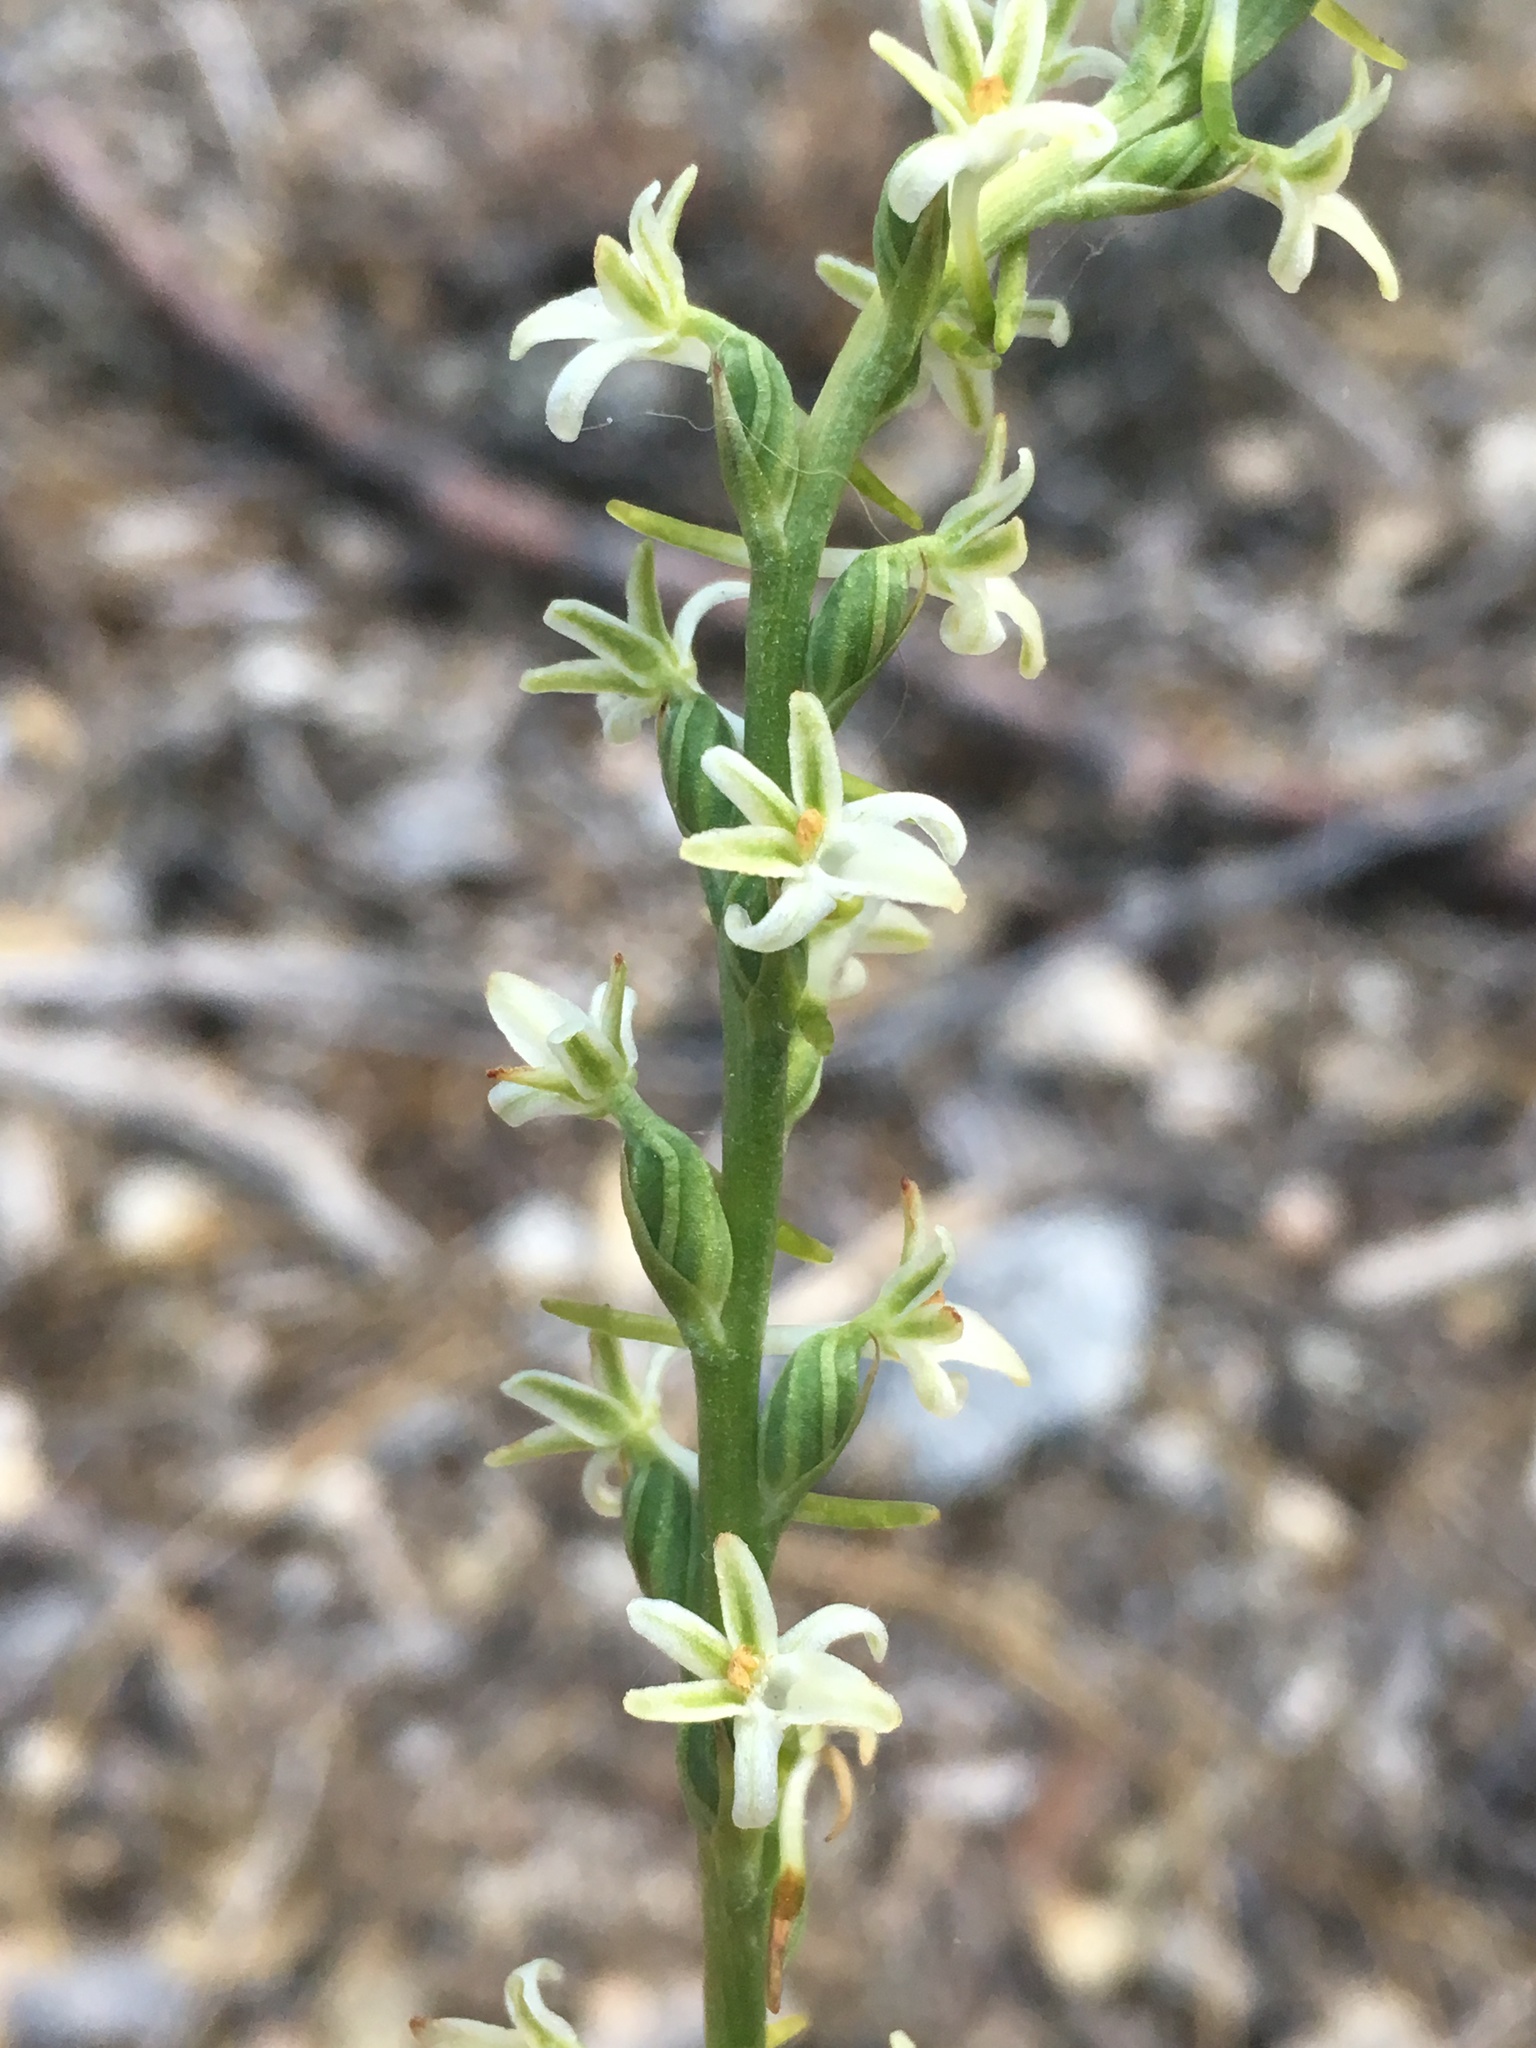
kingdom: Plantae
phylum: Tracheophyta
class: Liliopsida
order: Asparagales
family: Orchidaceae
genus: Platanthera
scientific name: Platanthera transversa
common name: Royal rein orchid
